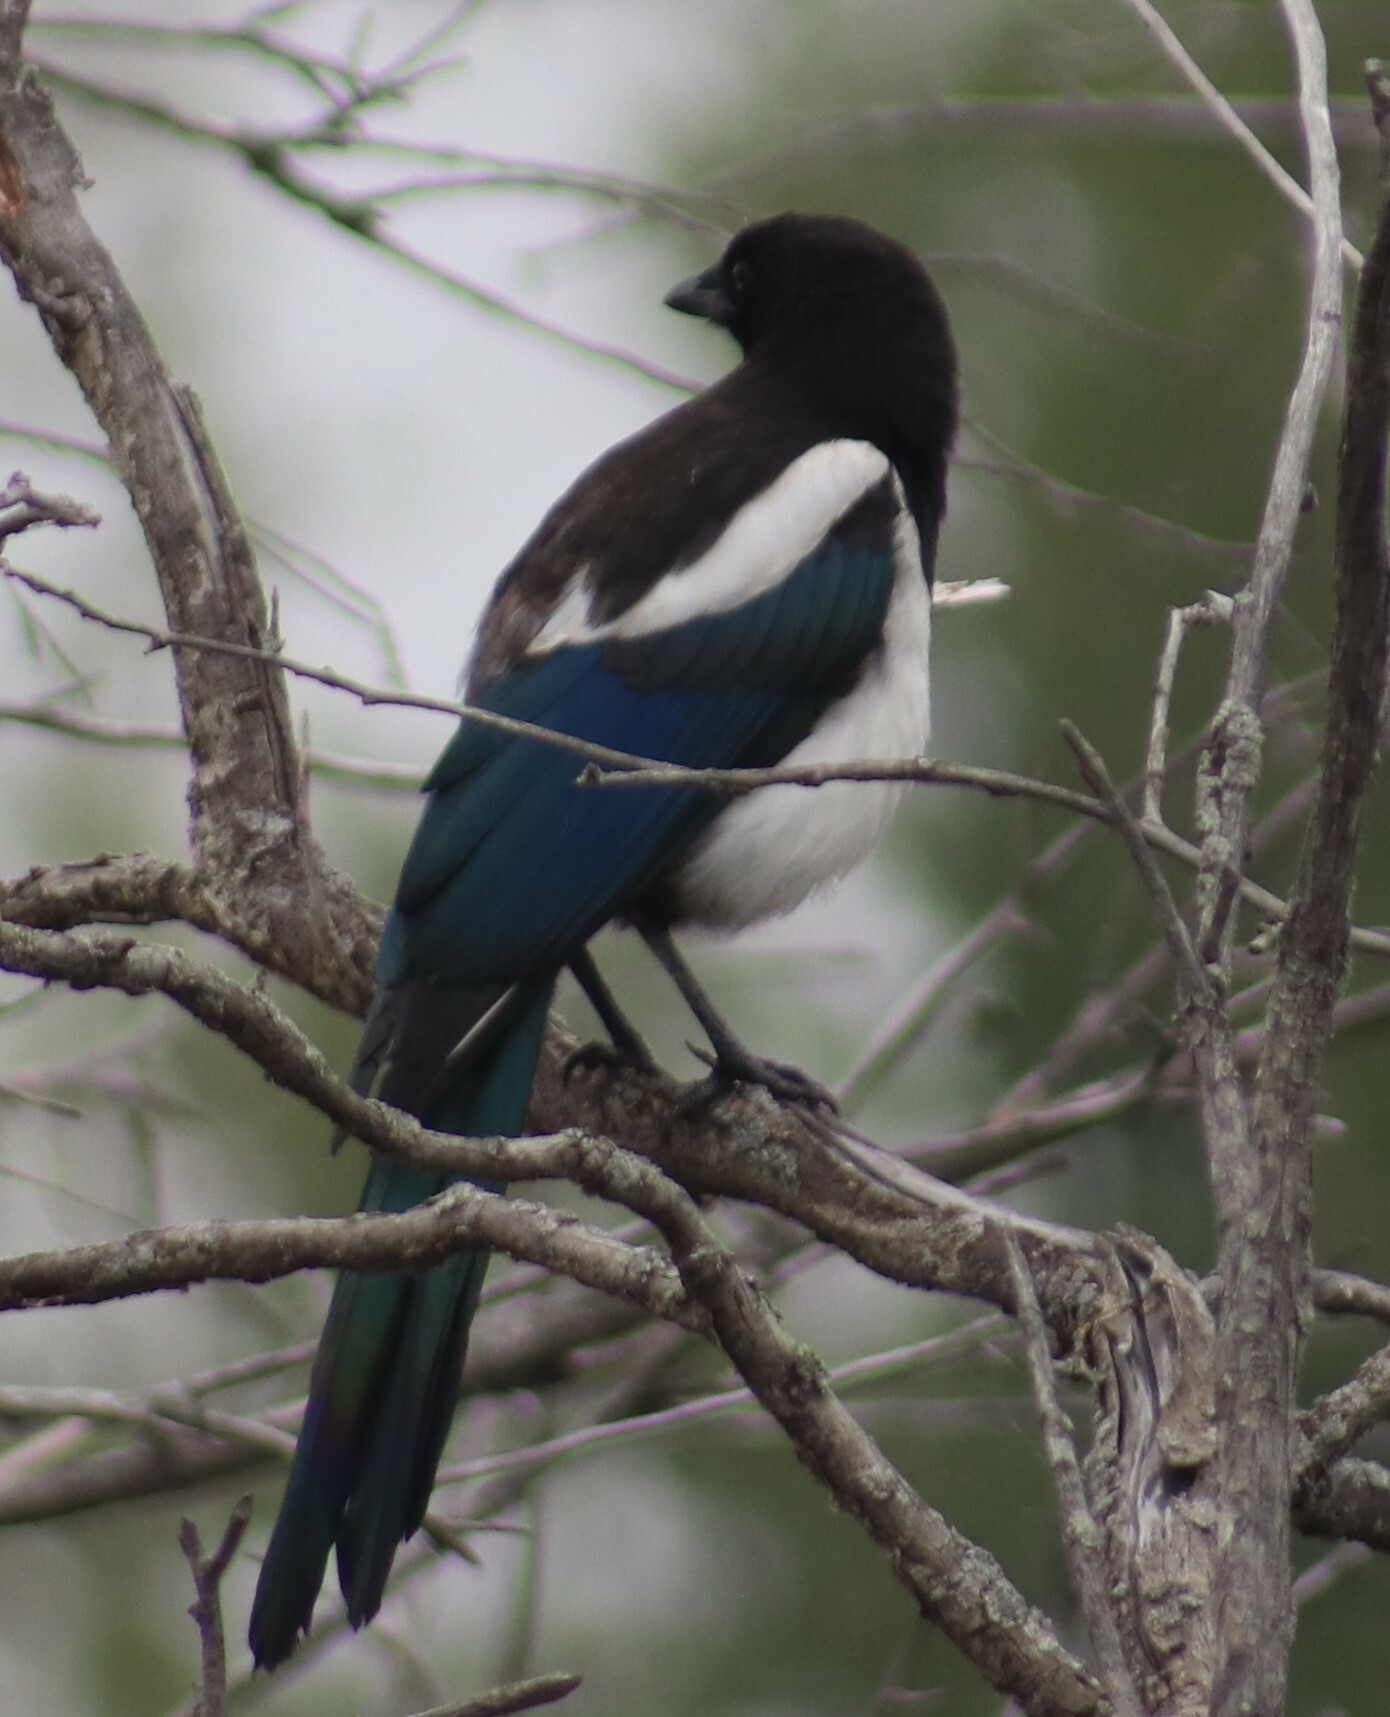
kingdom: Animalia
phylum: Chordata
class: Aves
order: Passeriformes
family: Corvidae
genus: Pica
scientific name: Pica hudsonia
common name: Black-billed magpie
